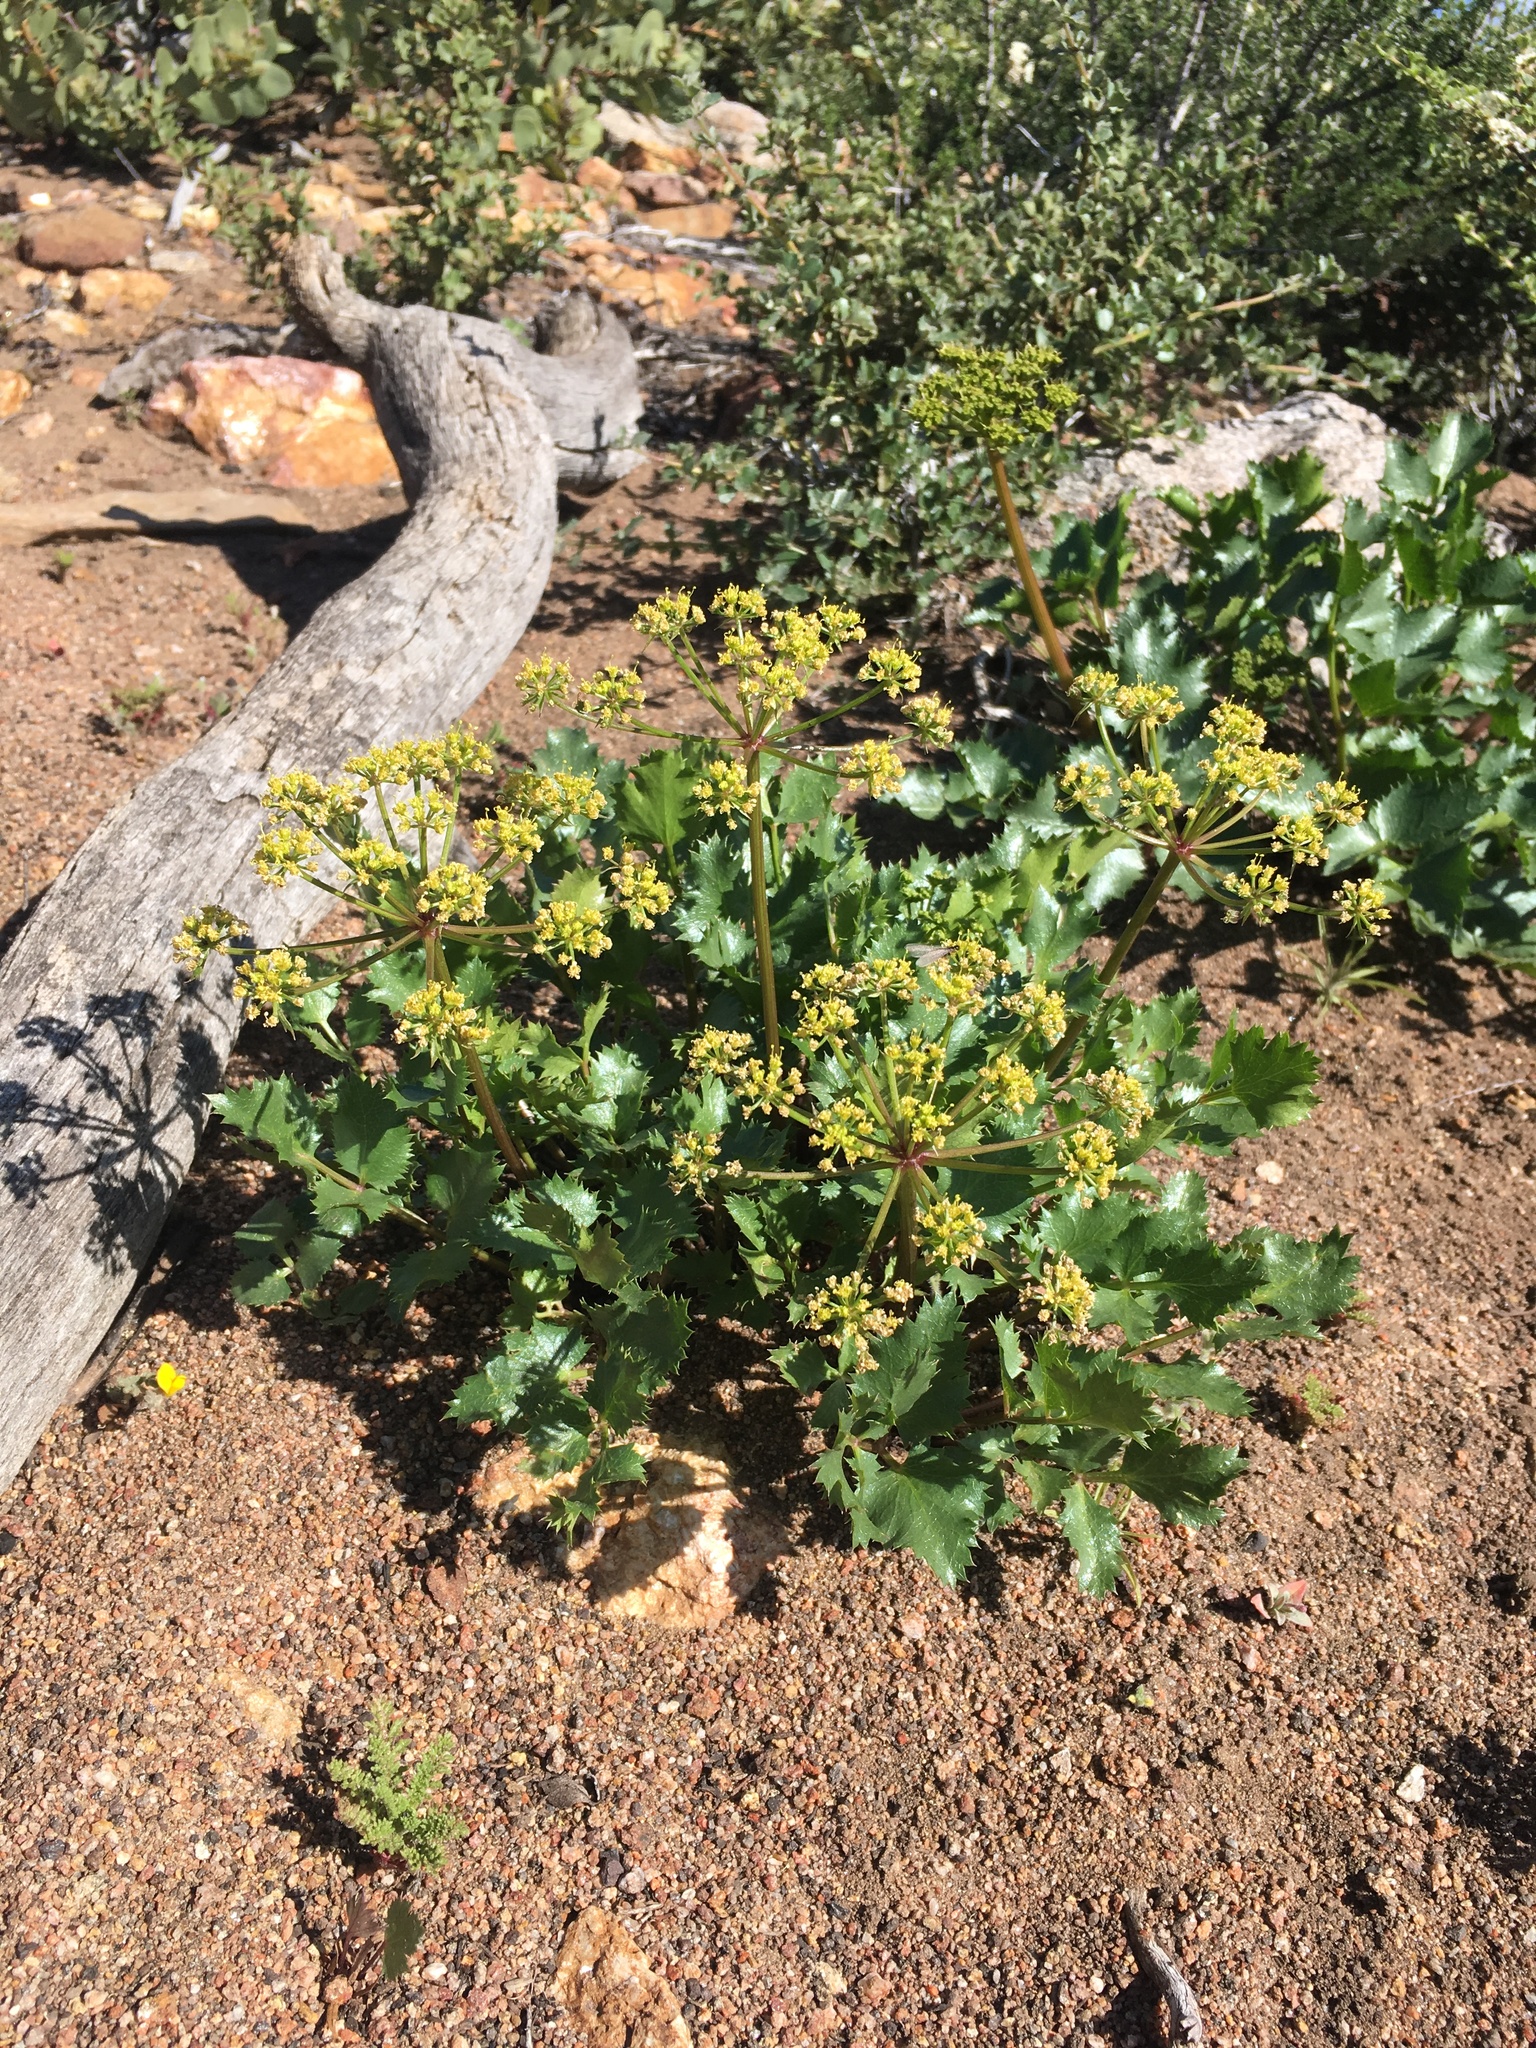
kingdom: Plantae
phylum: Tracheophyta
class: Magnoliopsida
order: Apiales
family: Apiaceae
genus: Tauschia
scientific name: Tauschia arguta
